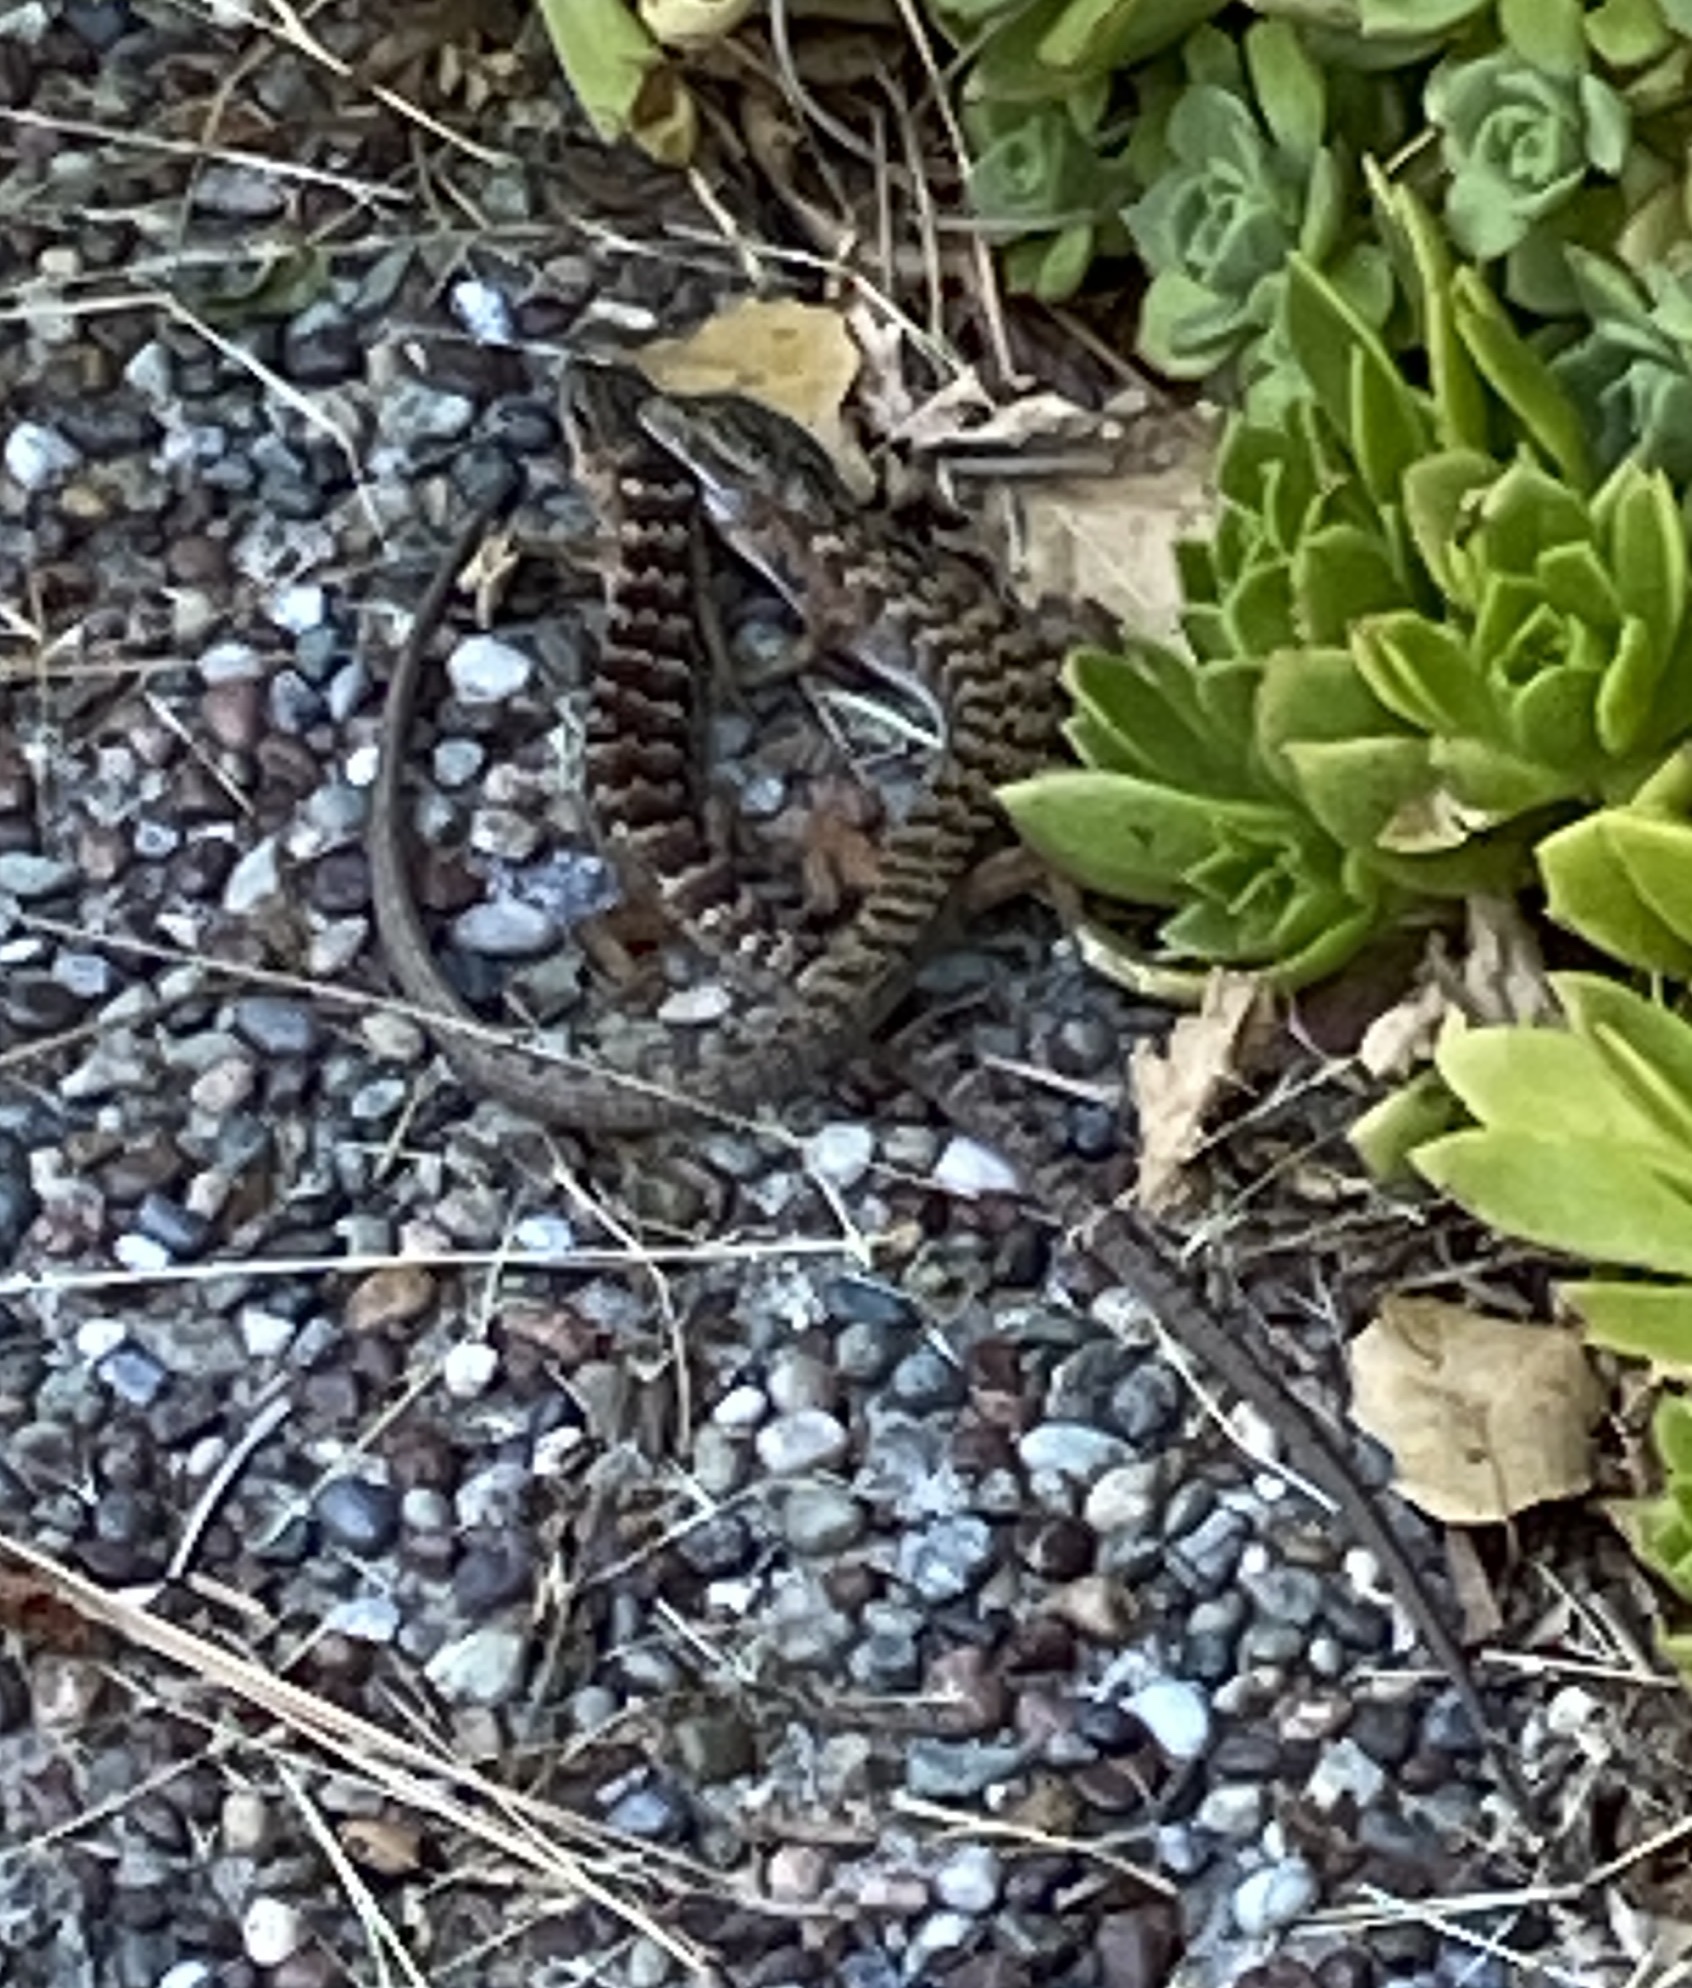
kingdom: Animalia
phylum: Chordata
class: Squamata
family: Anguidae
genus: Elgaria
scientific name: Elgaria multicarinata
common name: Southern alligator lizard
